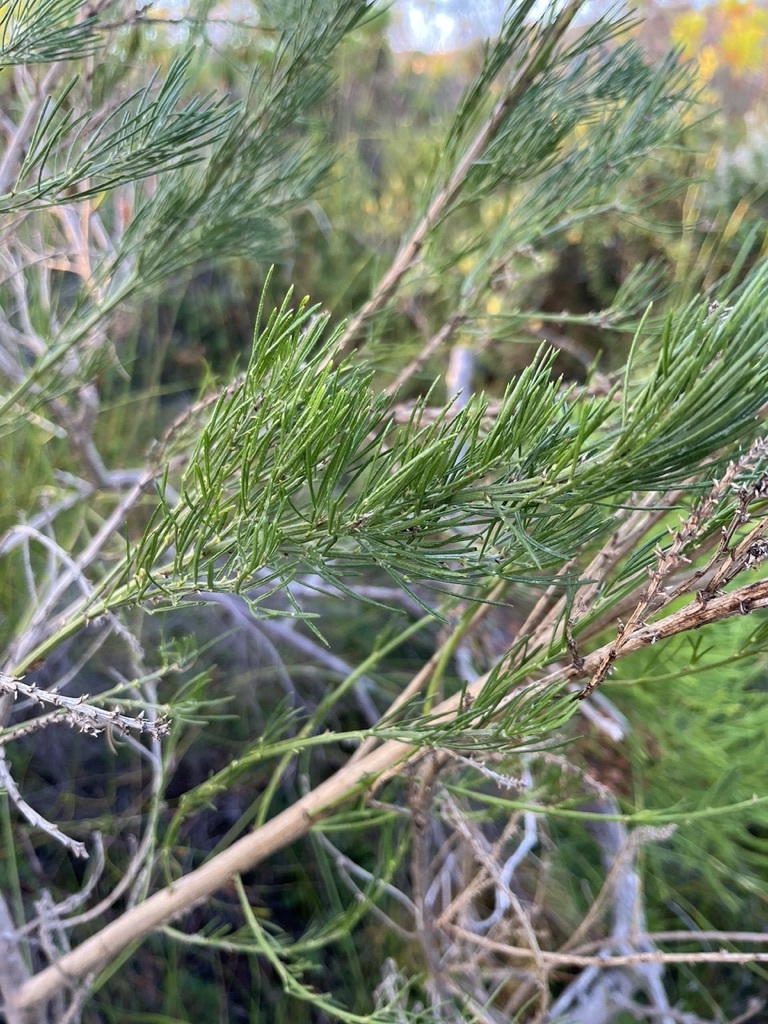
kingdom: Plantae
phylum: Tracheophyta
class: Magnoliopsida
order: Fabales
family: Fabaceae
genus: Psoralea
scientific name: Psoralea pinnata
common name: African scurfpea
